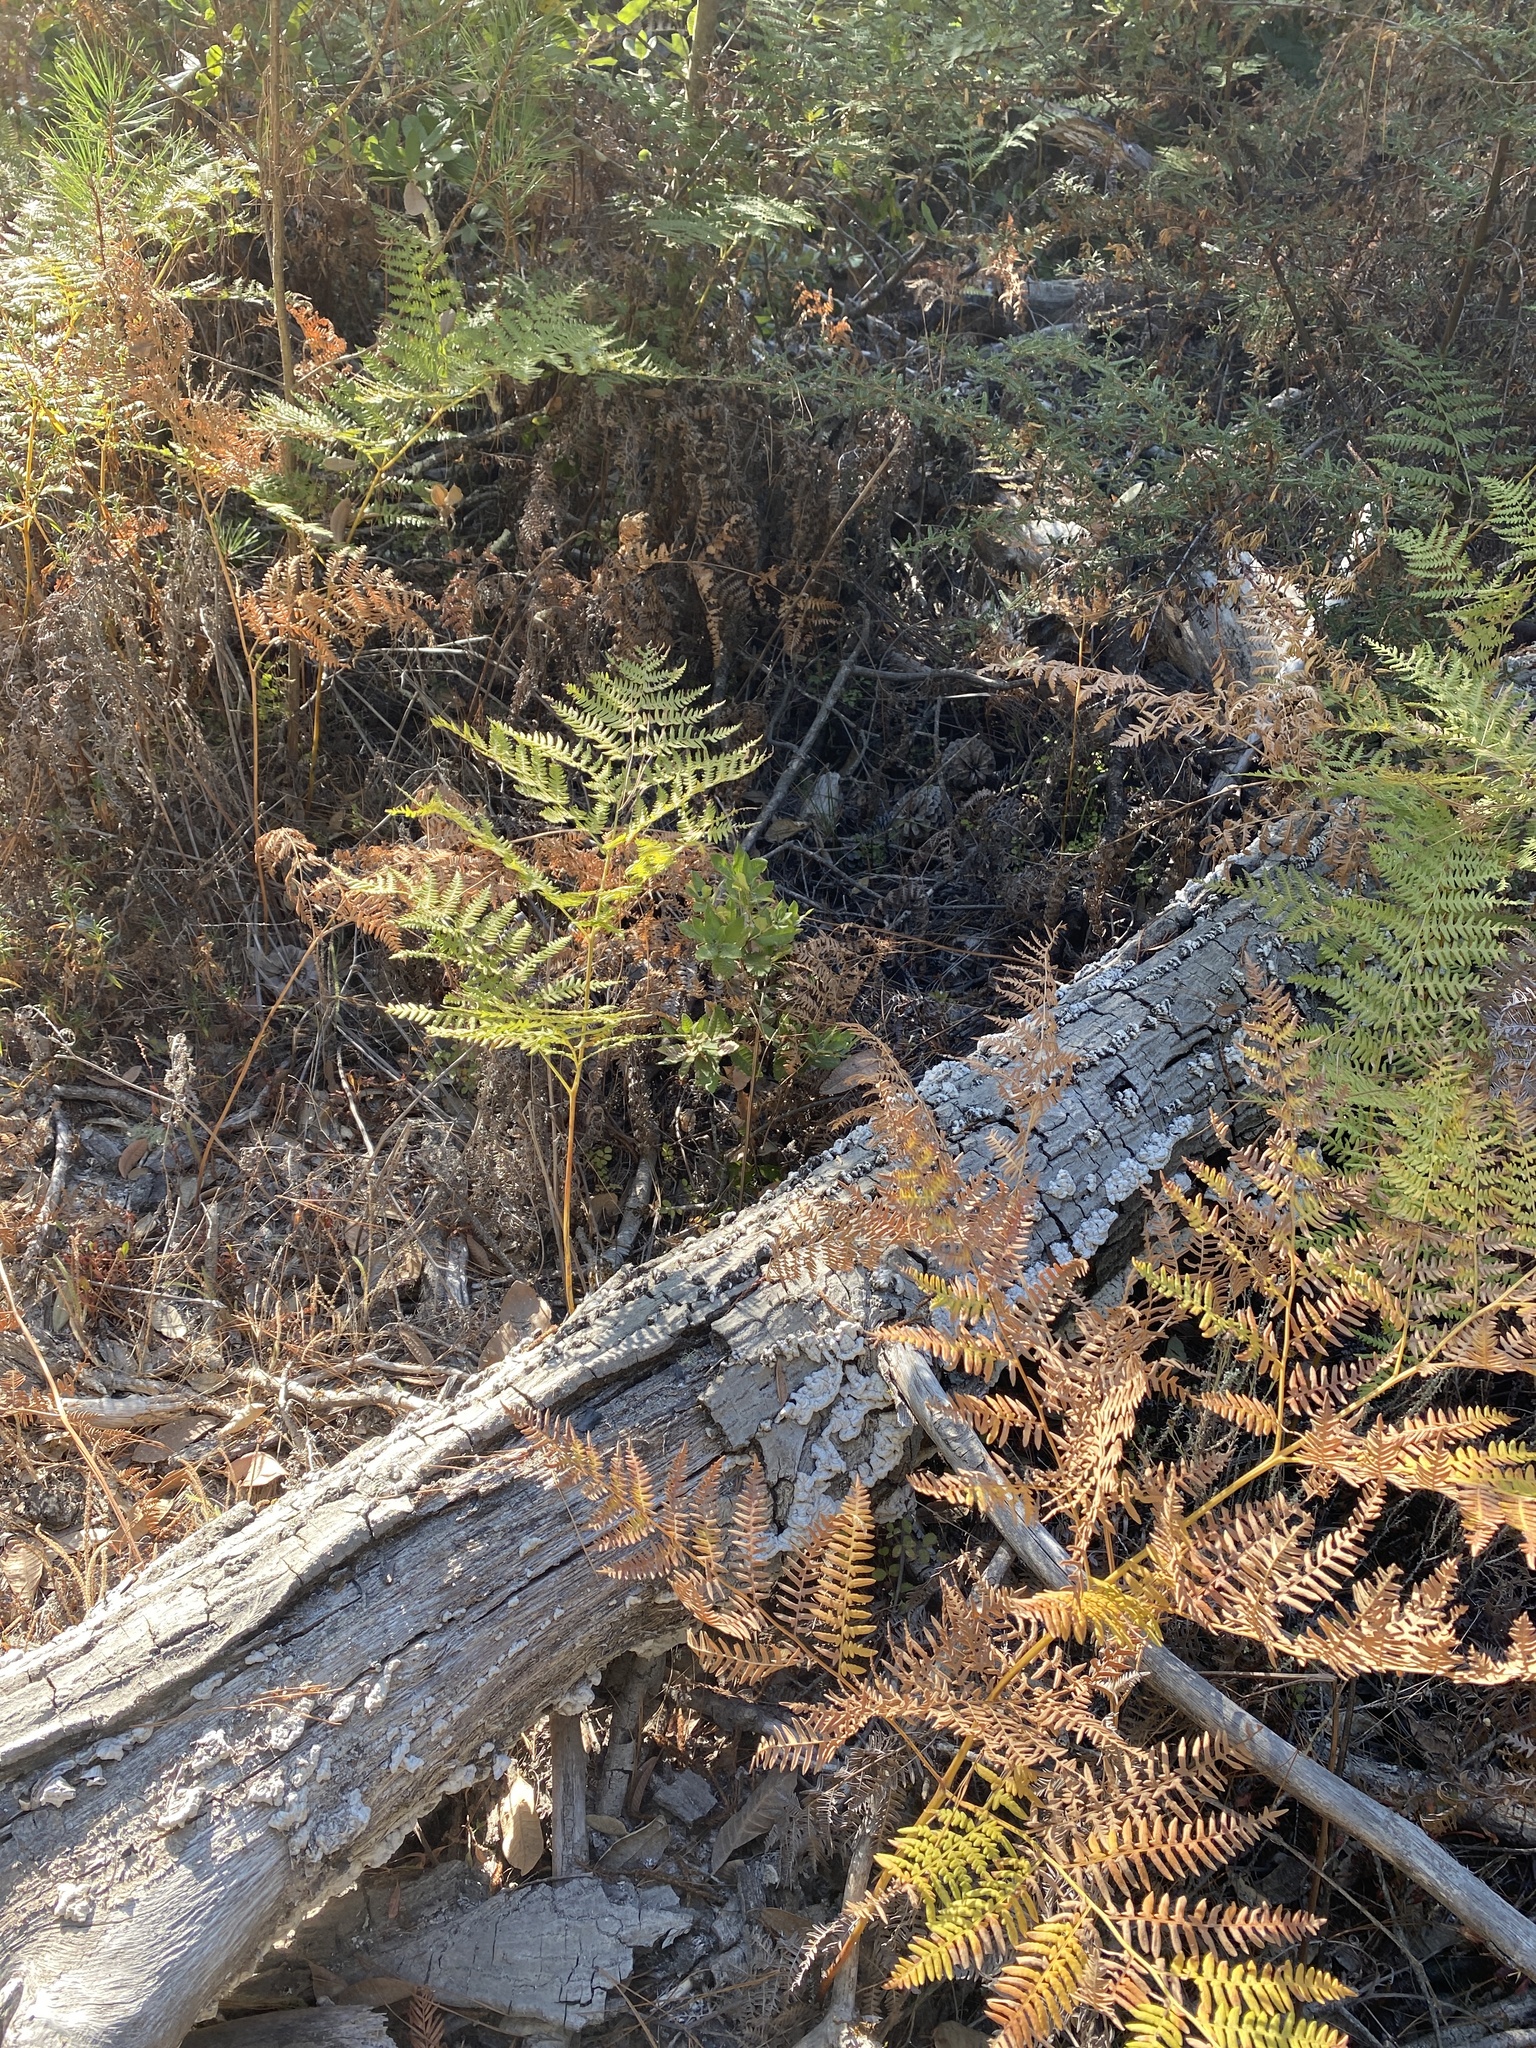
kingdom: Plantae
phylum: Tracheophyta
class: Polypodiopsida
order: Polypodiales
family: Dennstaedtiaceae
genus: Pteridium
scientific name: Pteridium aquilinum
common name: Bracken
